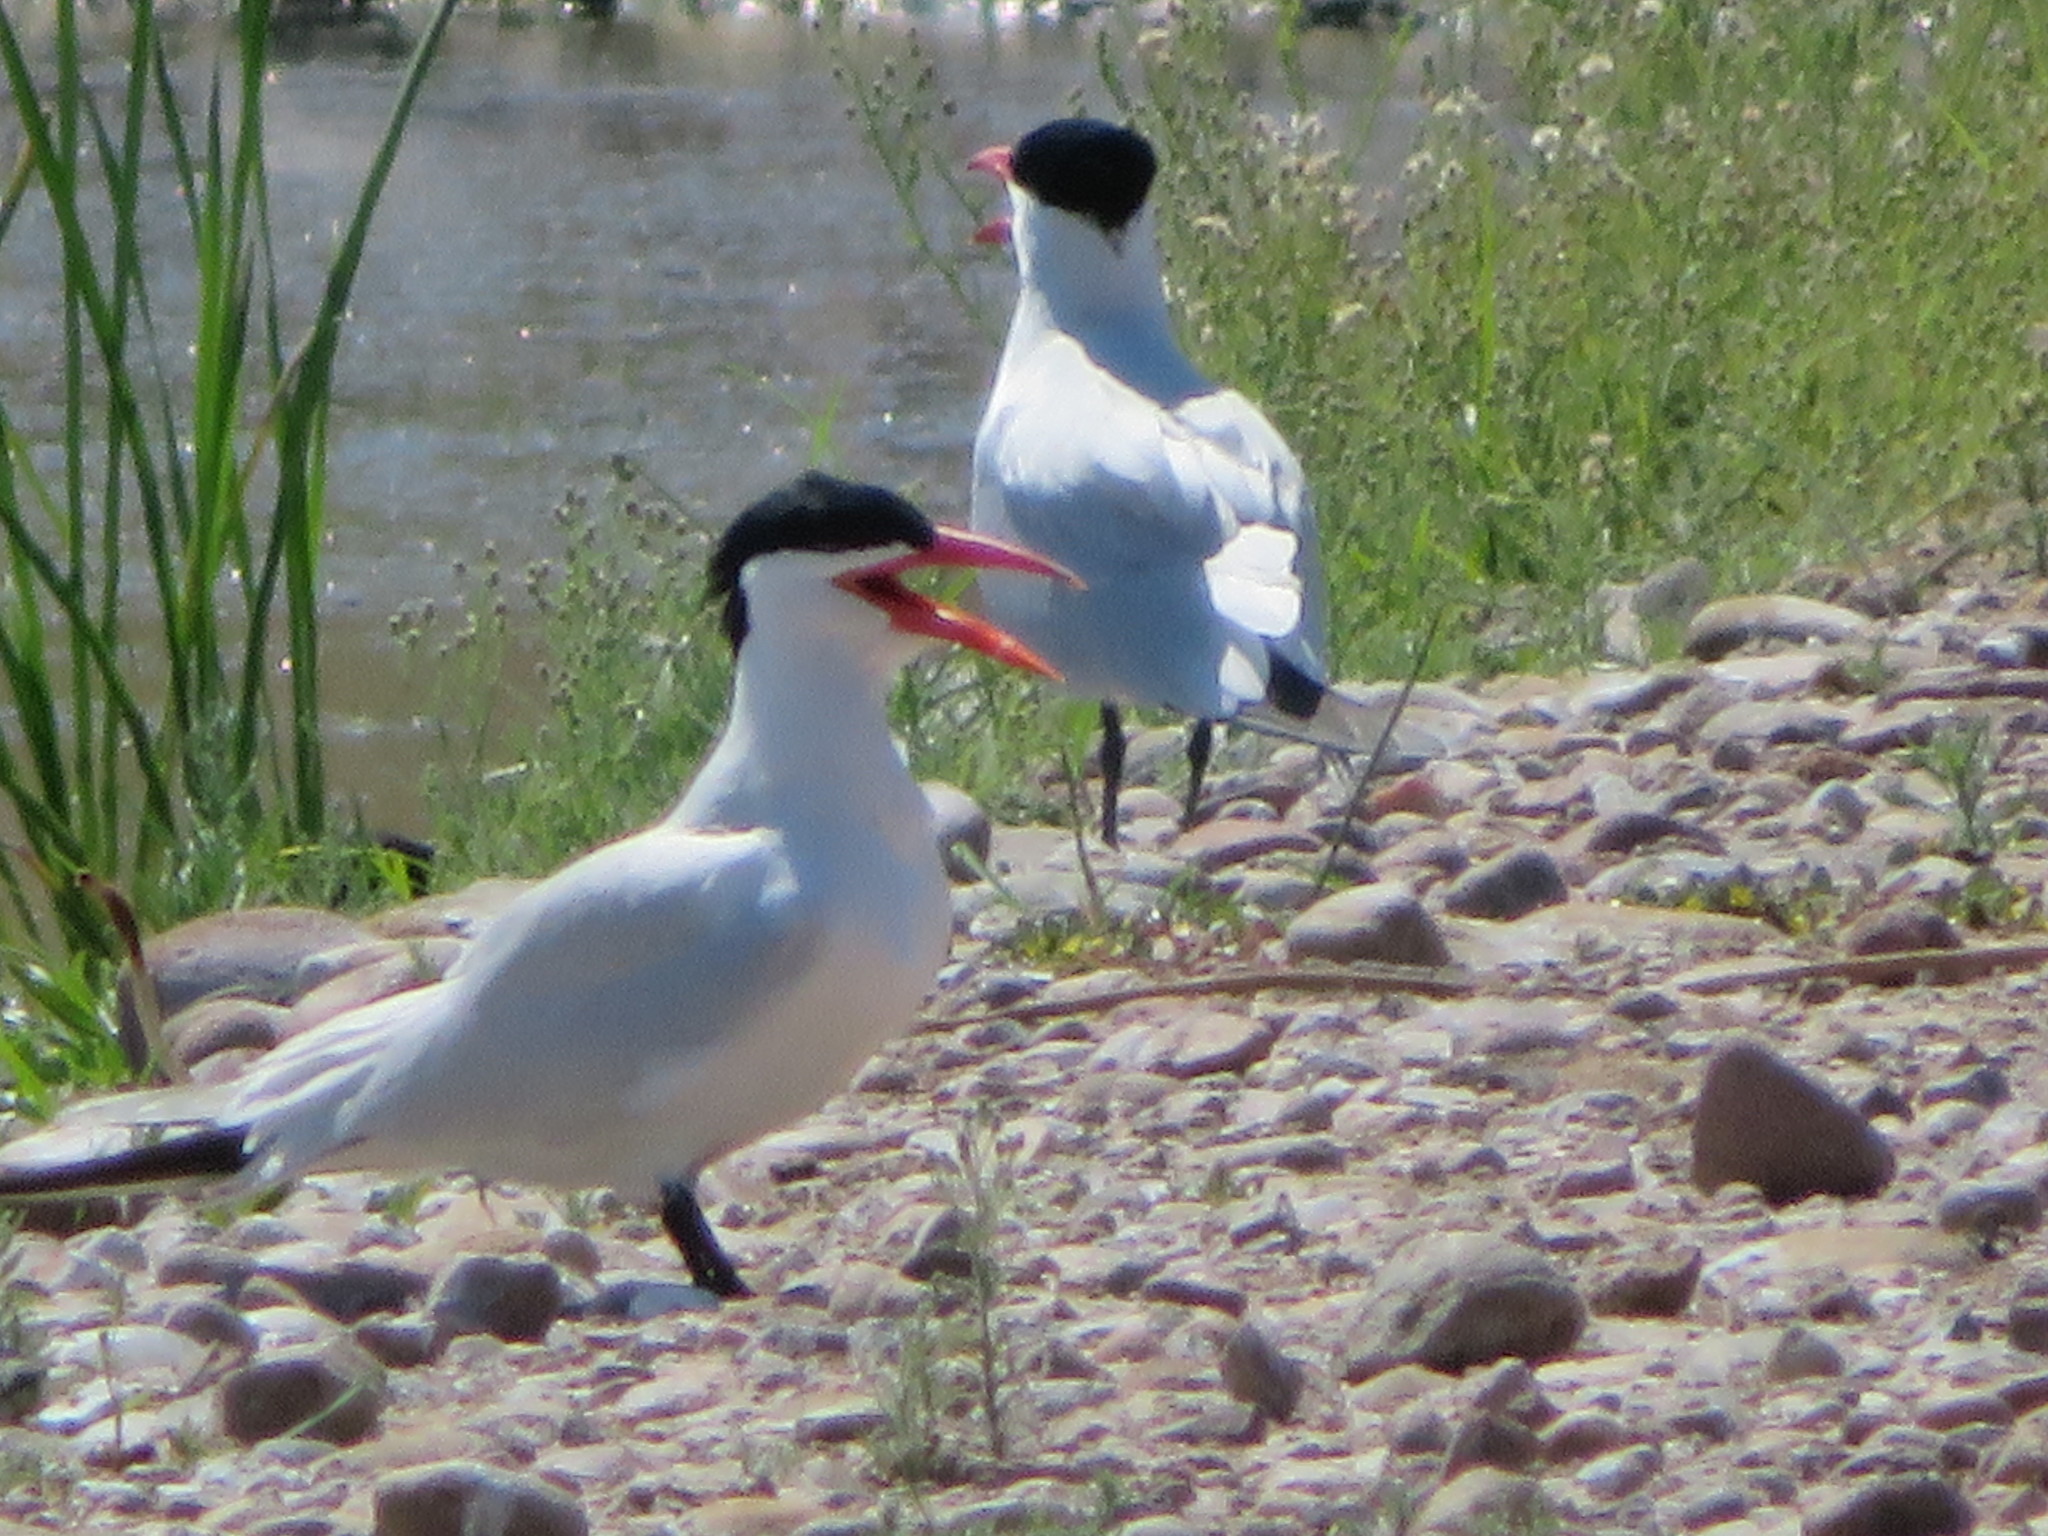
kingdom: Animalia
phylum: Chordata
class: Aves
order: Charadriiformes
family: Laridae
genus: Hydroprogne
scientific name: Hydroprogne caspia
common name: Caspian tern
